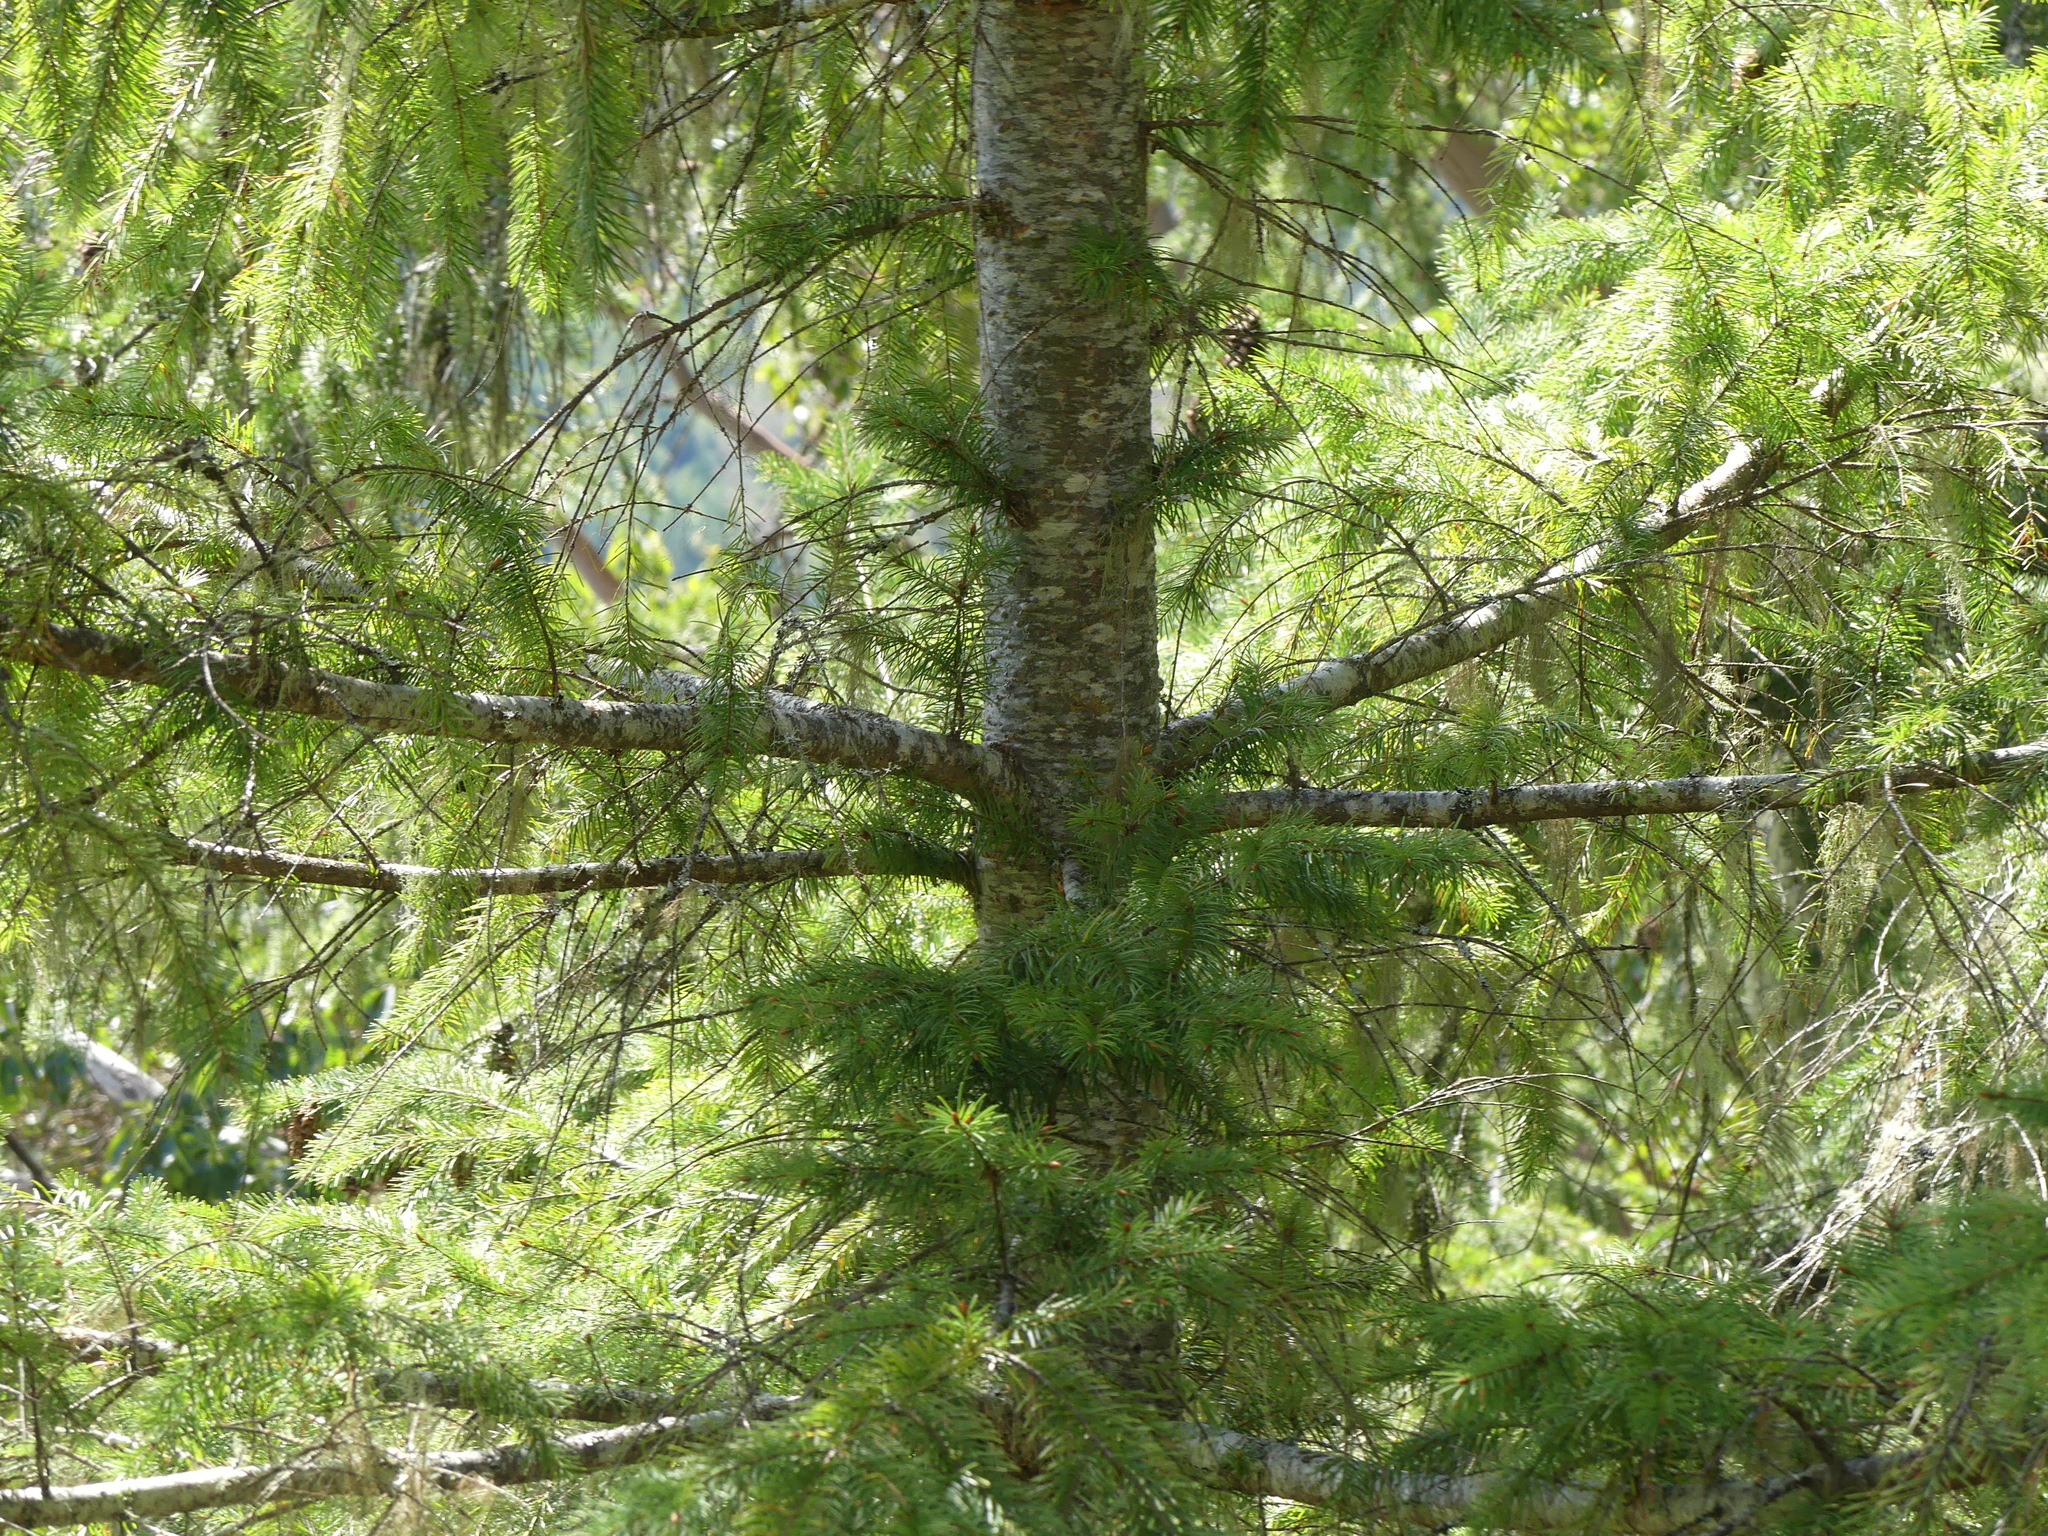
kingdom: Plantae
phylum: Tracheophyta
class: Pinopsida
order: Pinales
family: Pinaceae
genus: Pseudotsuga
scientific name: Pseudotsuga menziesii
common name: Douglas fir
